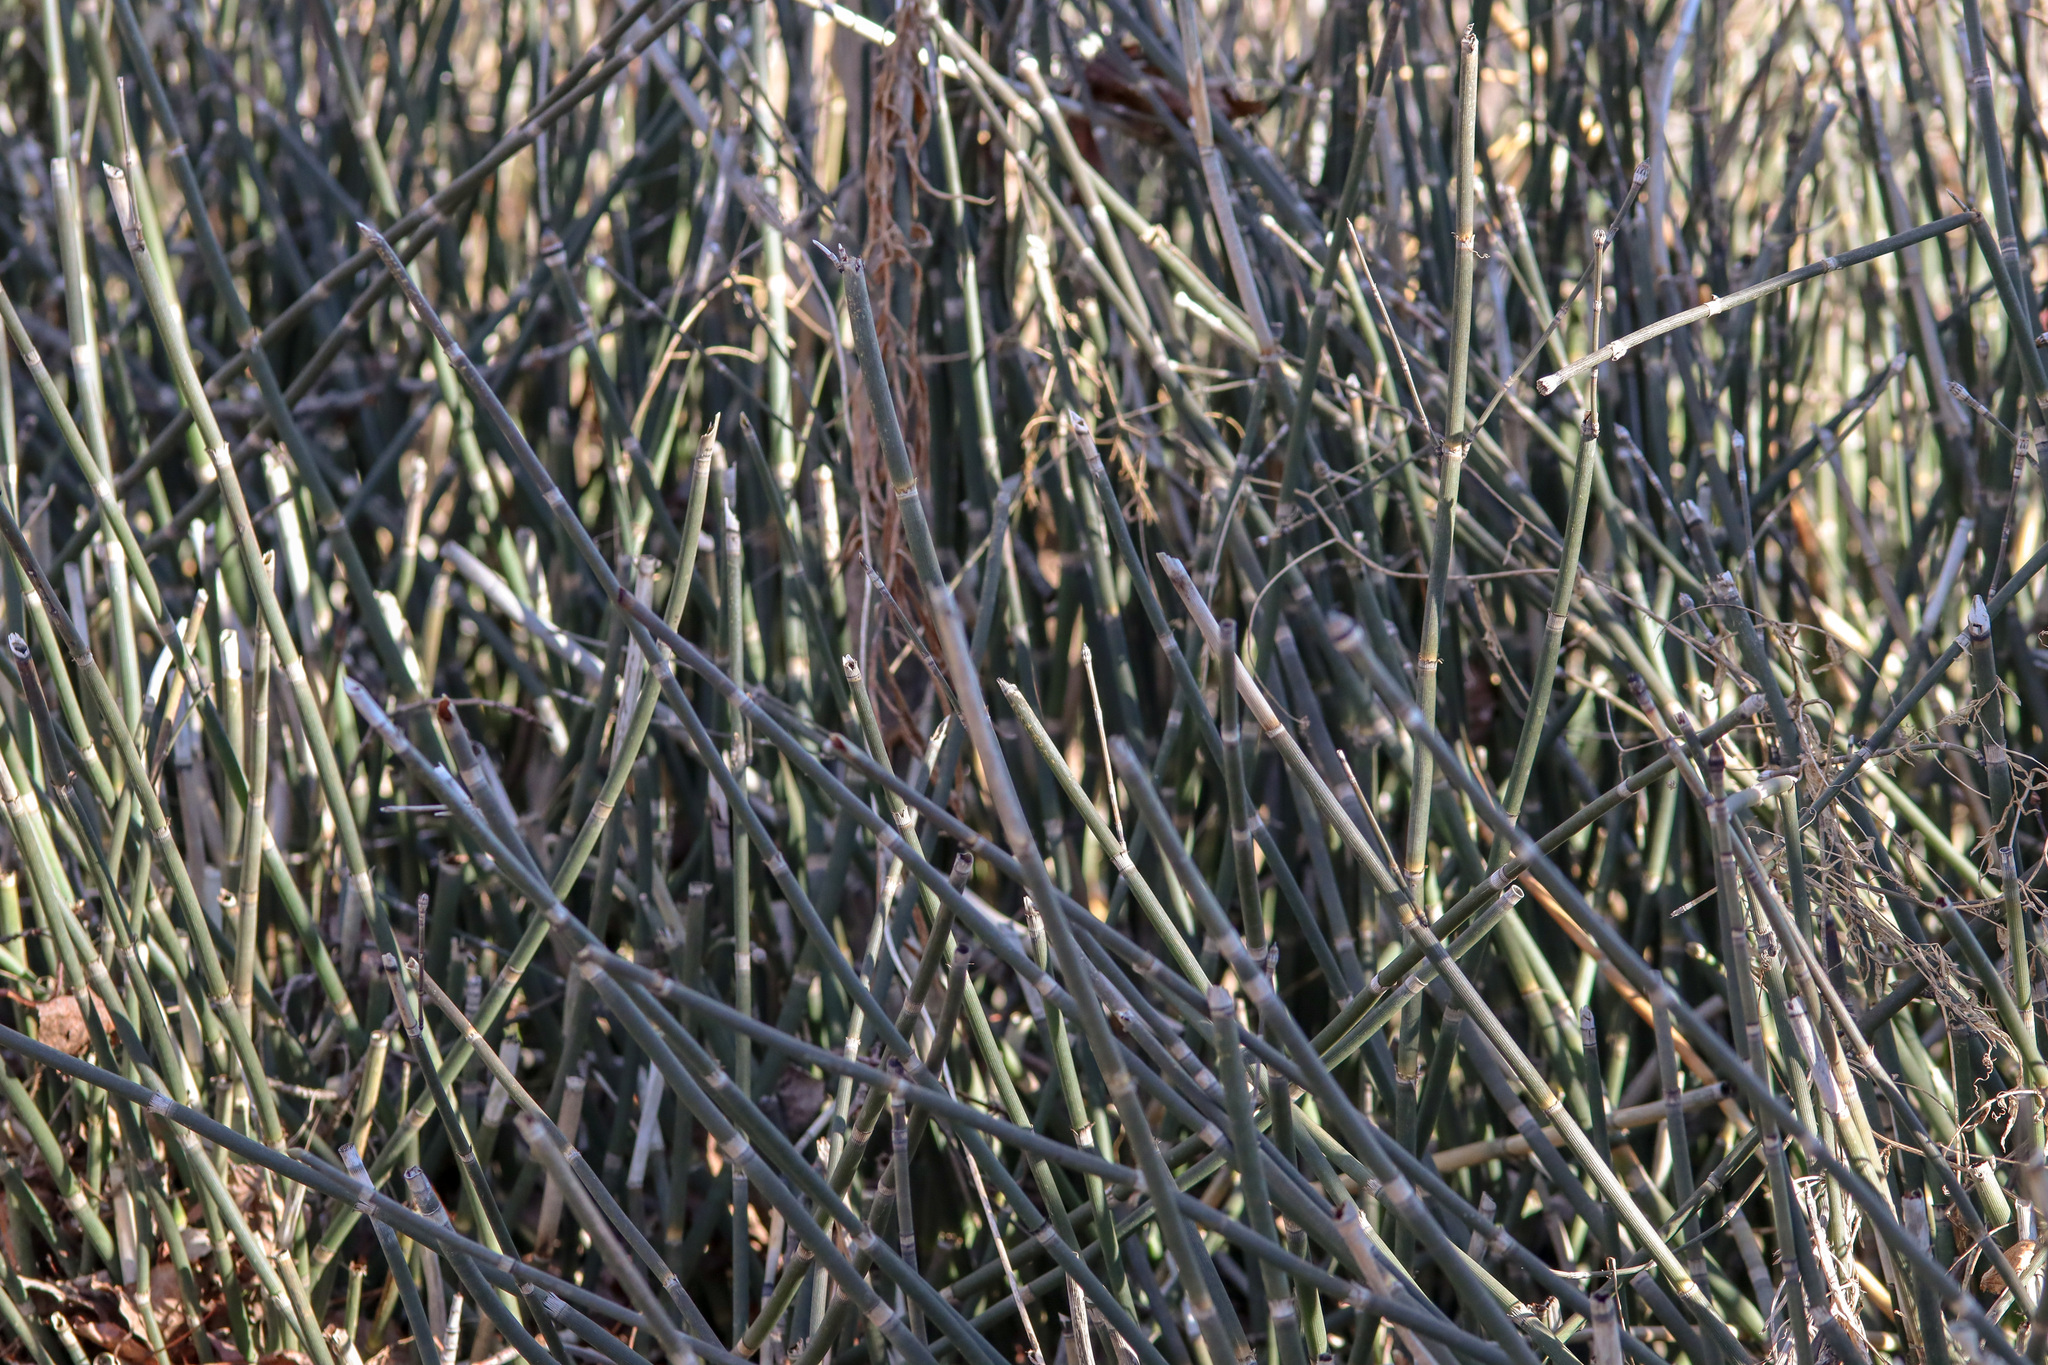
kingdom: Plantae
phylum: Tracheophyta
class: Polypodiopsida
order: Equisetales
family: Equisetaceae
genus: Equisetum
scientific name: Equisetum hyemale
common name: Rough horsetail
